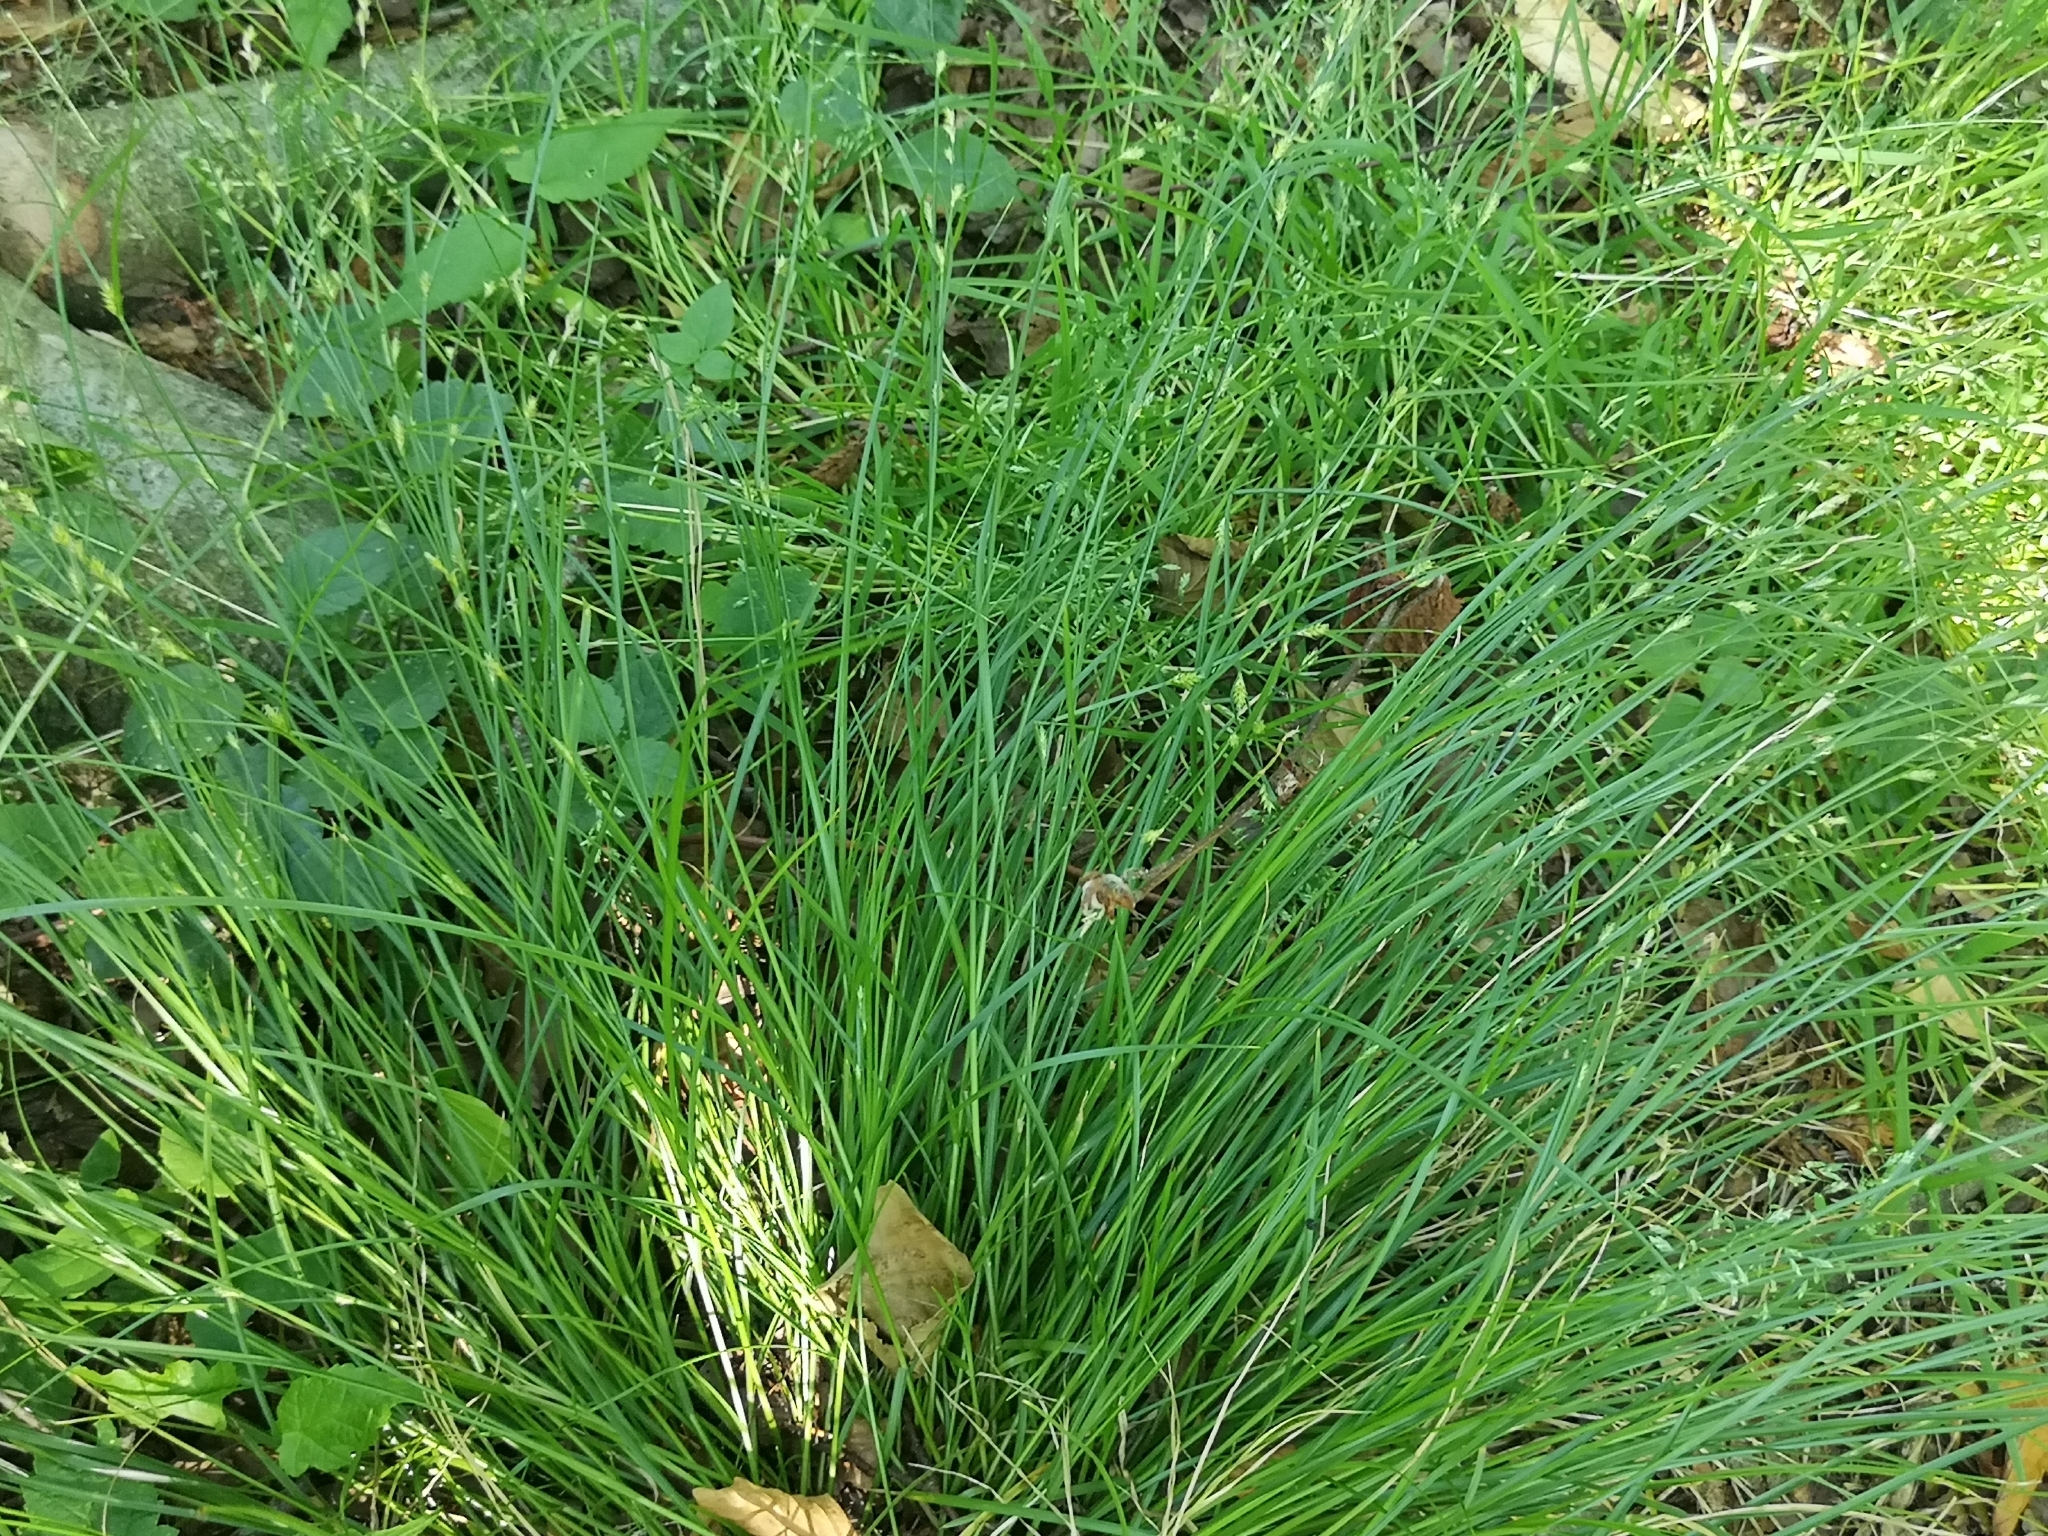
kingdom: Plantae
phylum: Tracheophyta
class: Liliopsida
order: Poales
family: Cyperaceae
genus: Carex
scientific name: Carex remota
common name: Remote sedge
